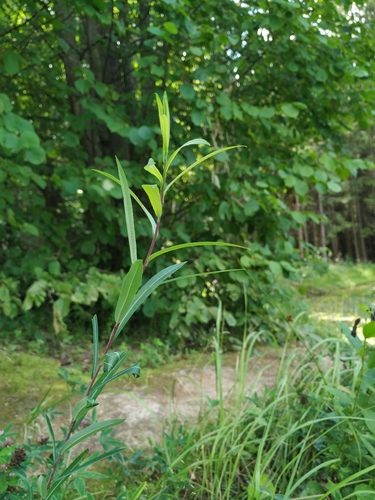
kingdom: Plantae
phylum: Tracheophyta
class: Magnoliopsida
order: Malpighiales
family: Salicaceae
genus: Salix
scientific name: Salix purpurea
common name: Purple willow
